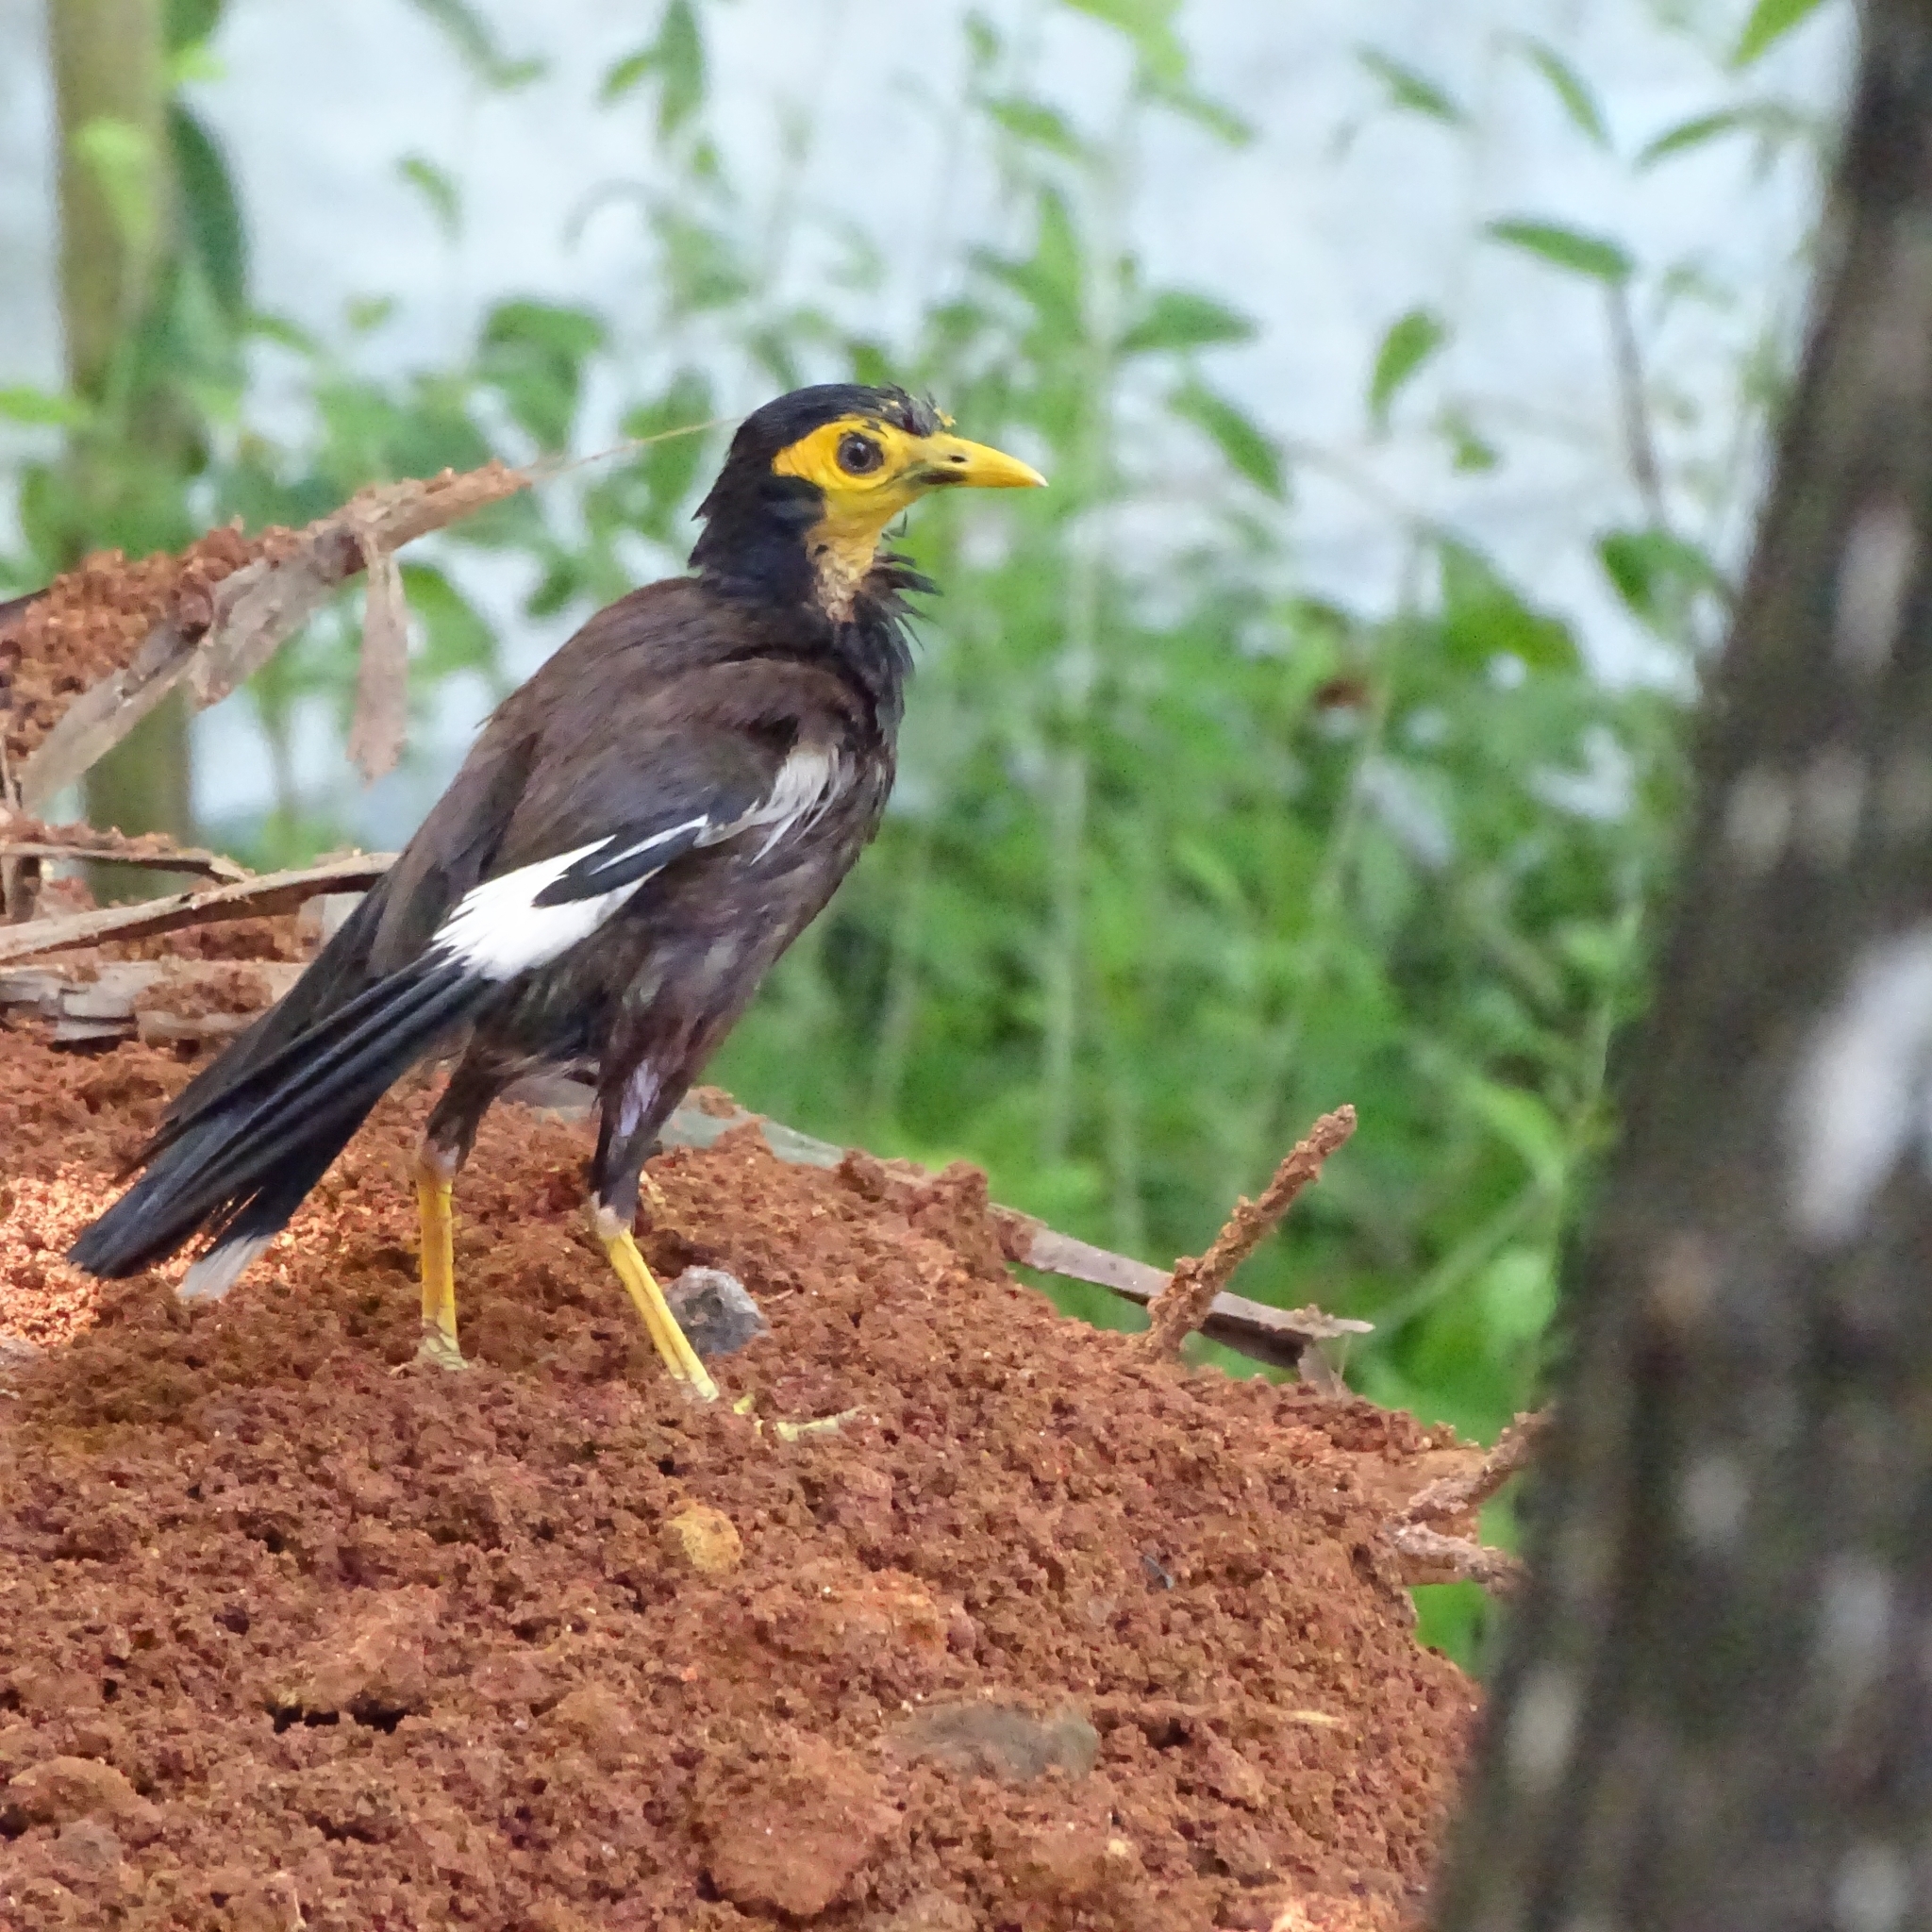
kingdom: Animalia
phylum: Chordata
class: Aves
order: Passeriformes
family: Sturnidae
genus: Acridotheres
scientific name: Acridotheres tristis
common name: Common myna
